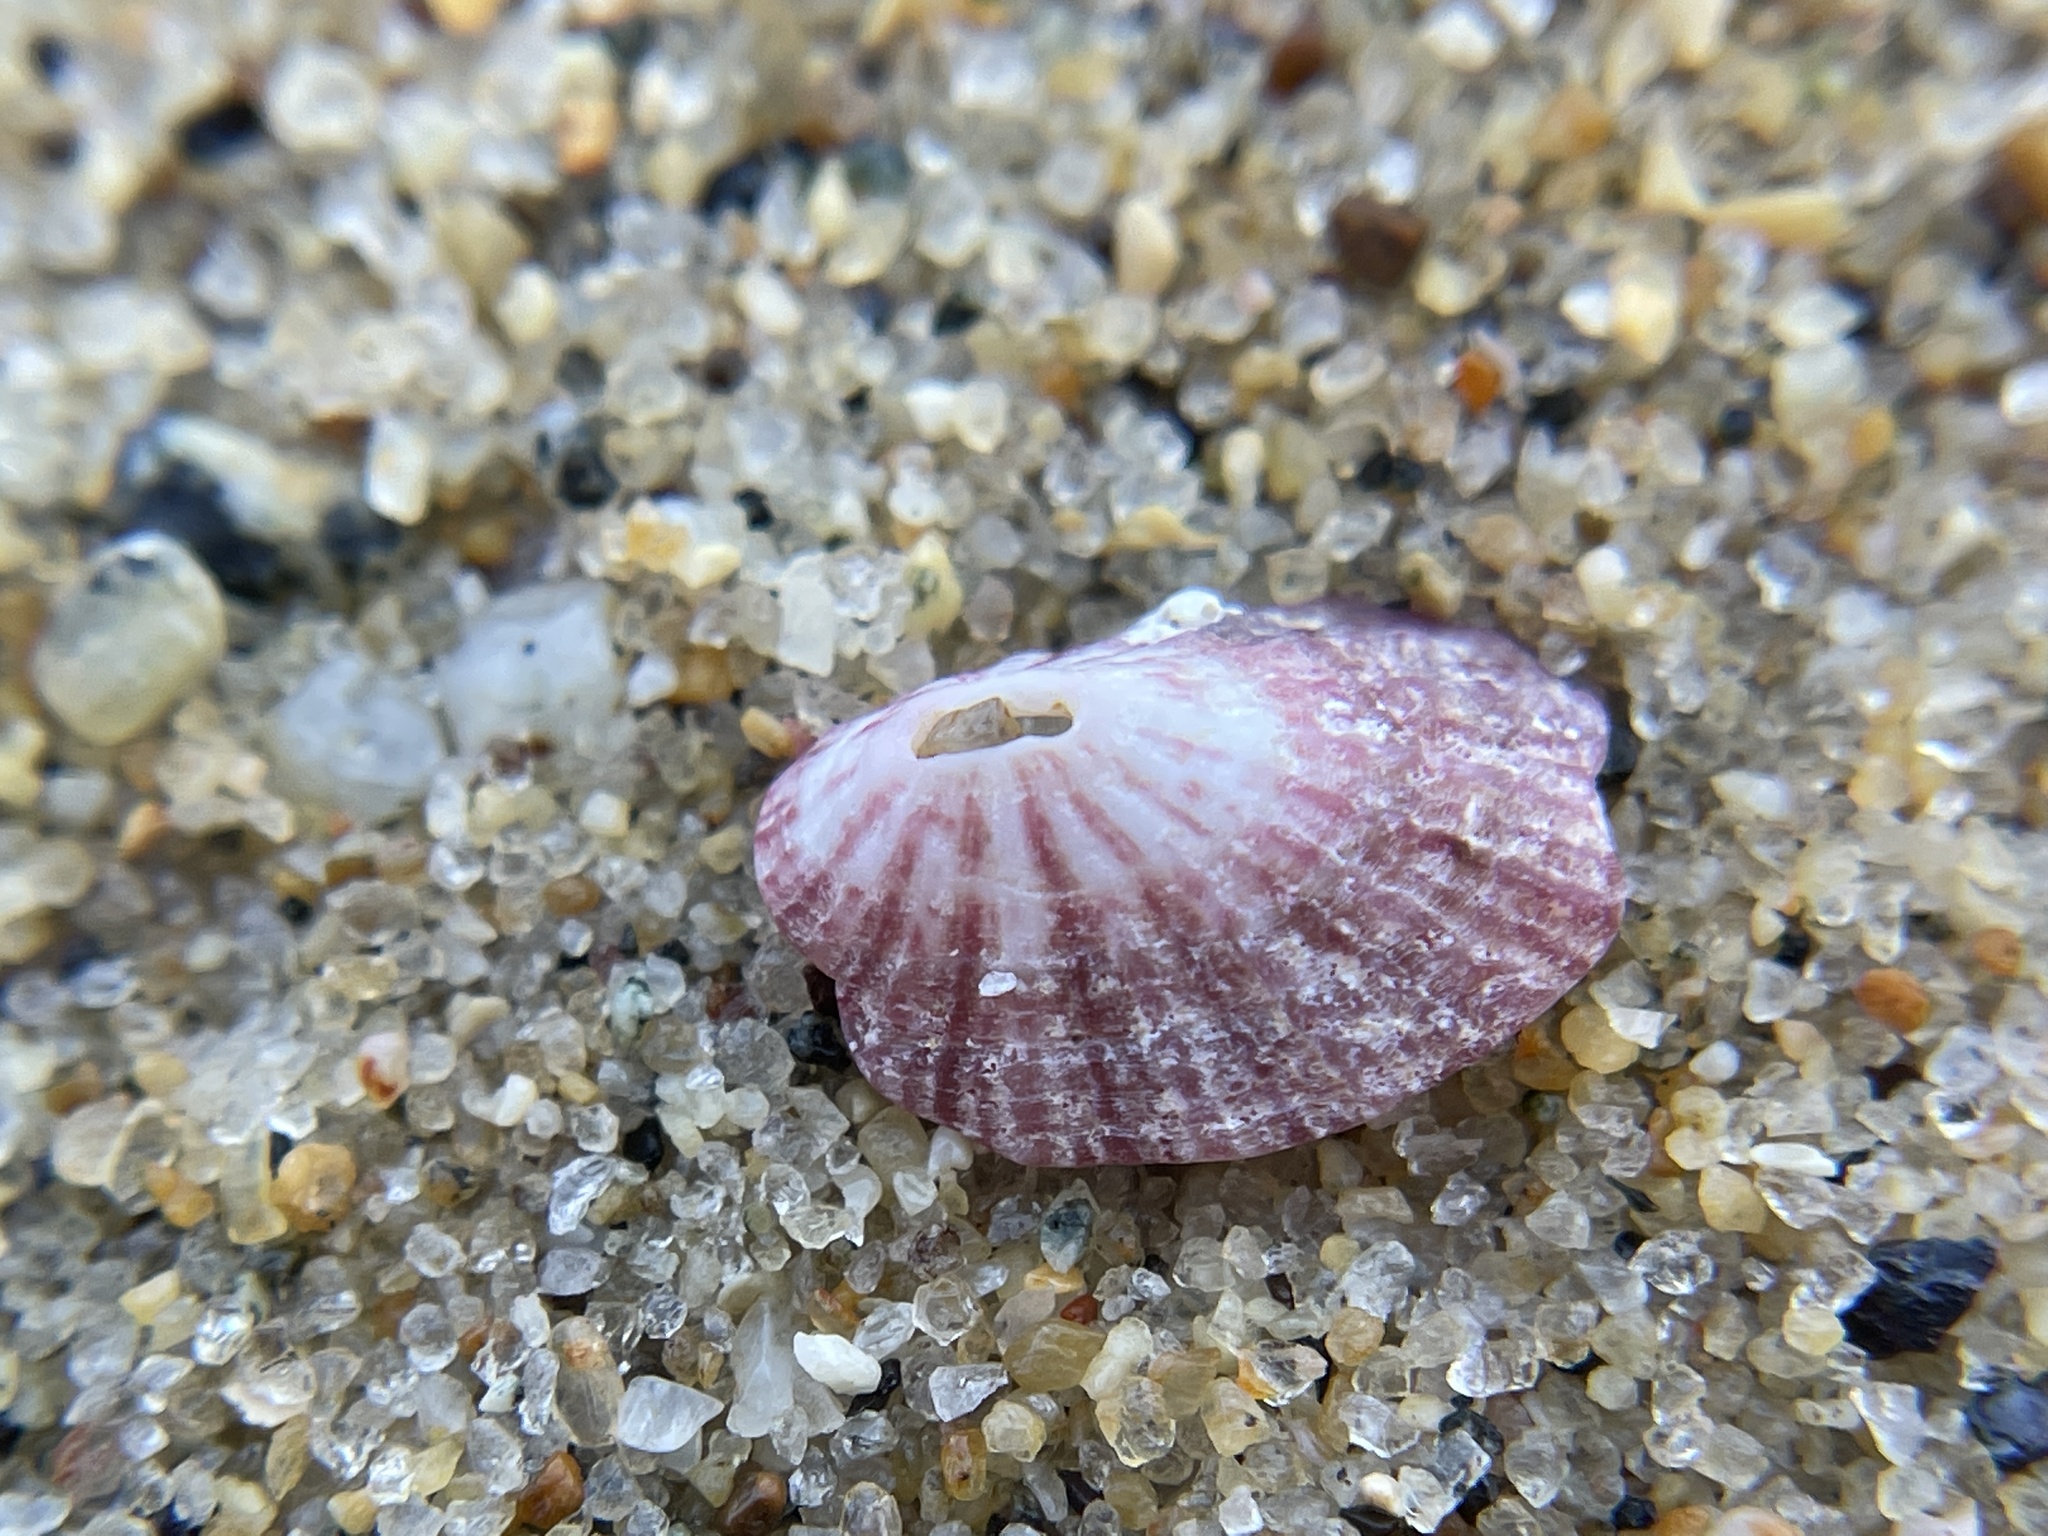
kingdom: Animalia
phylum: Mollusca
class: Gastropoda
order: Lepetellida
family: Fissurellidae
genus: Fissurella
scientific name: Fissurella volcano
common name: Volcano keyhole limpet
